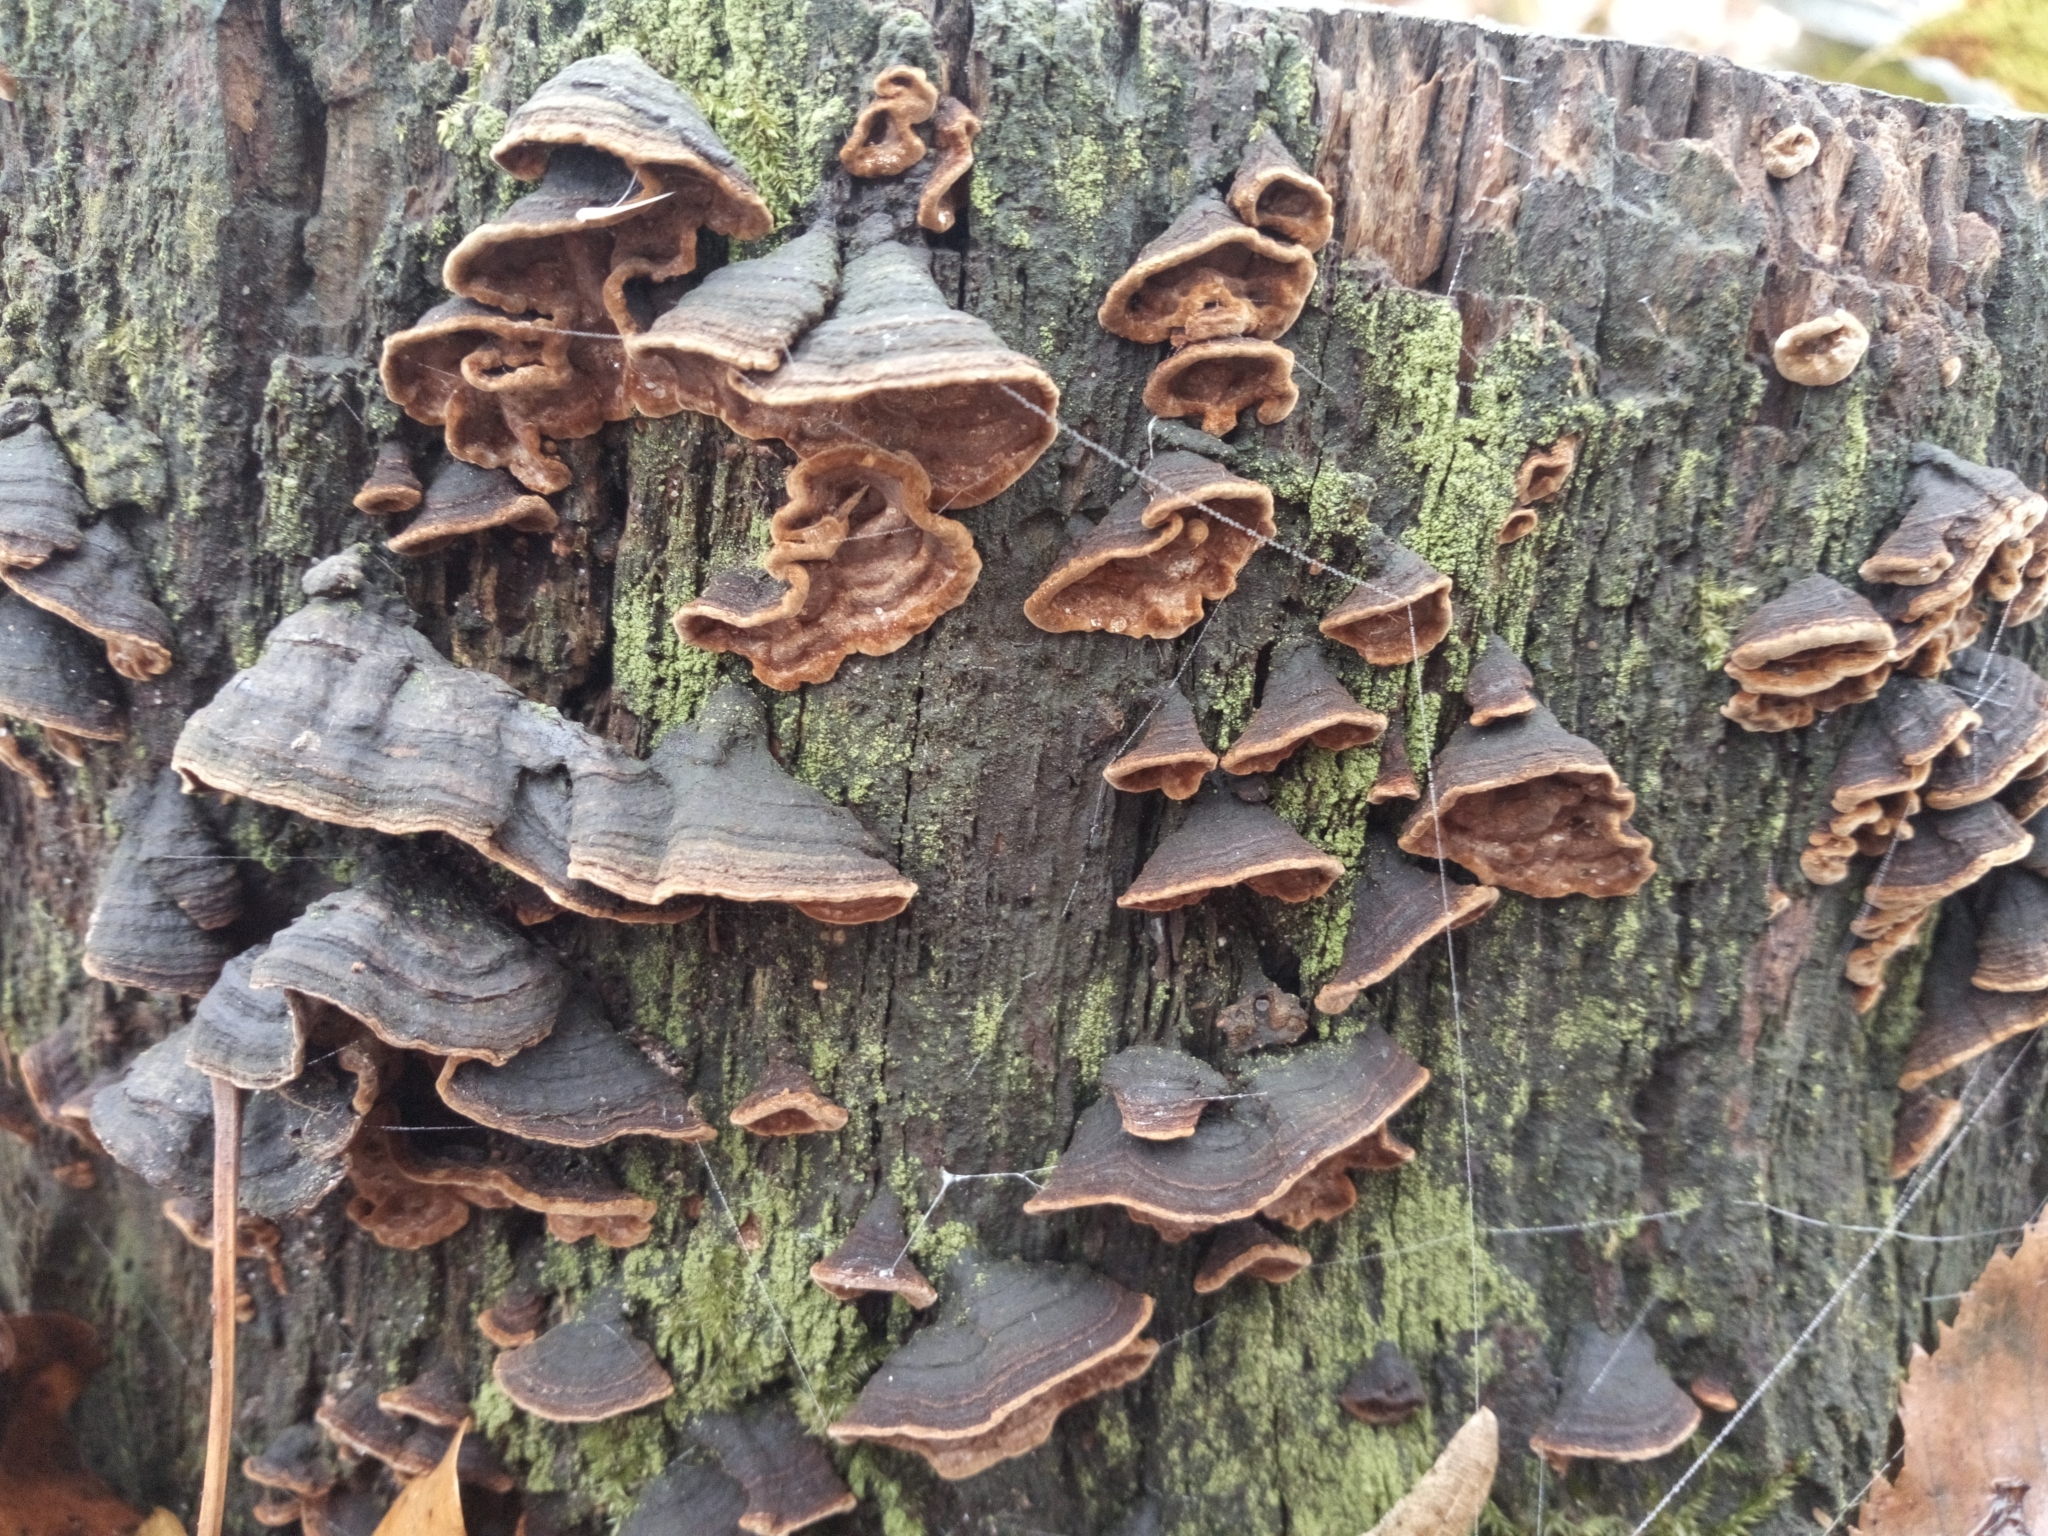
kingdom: Fungi
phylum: Basidiomycota
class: Agaricomycetes
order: Hymenochaetales
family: Hymenochaetaceae
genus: Hymenochaete
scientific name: Hymenochaete rubiginosa
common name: Oak curtain crust
